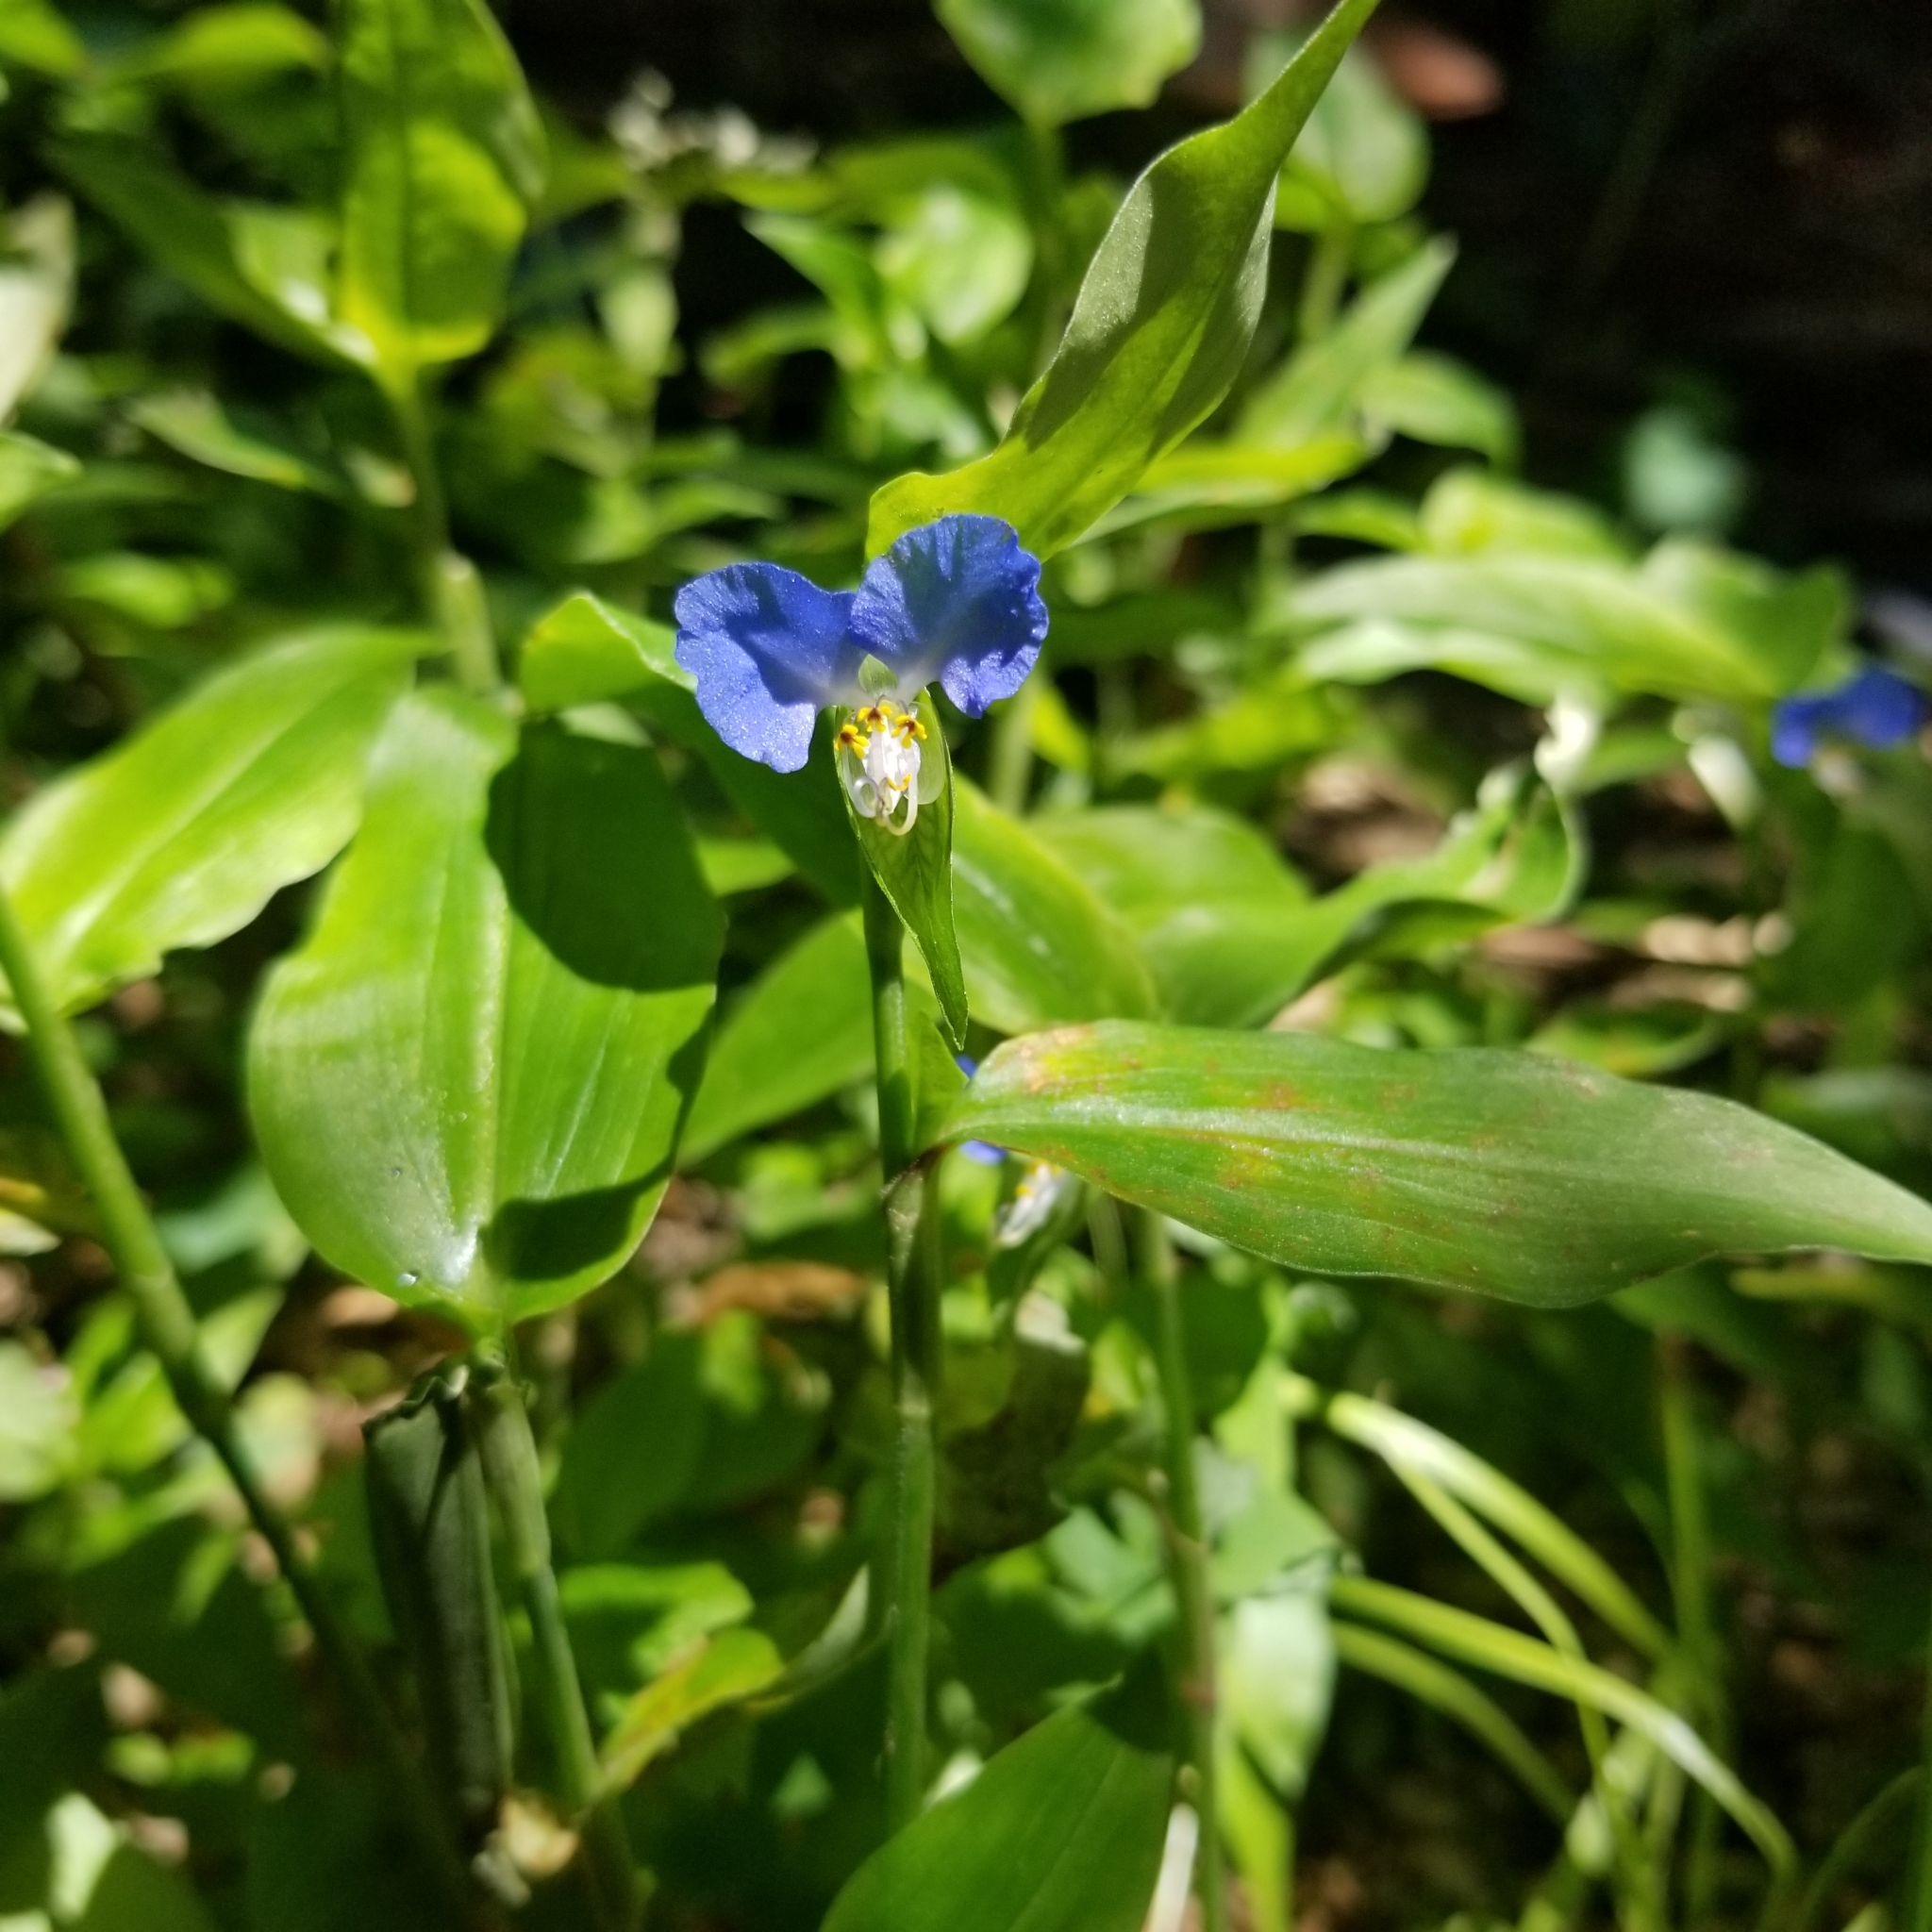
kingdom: Plantae
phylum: Tracheophyta
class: Liliopsida
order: Commelinales
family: Commelinaceae
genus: Commelina
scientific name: Commelina communis
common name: Asiatic dayflower
